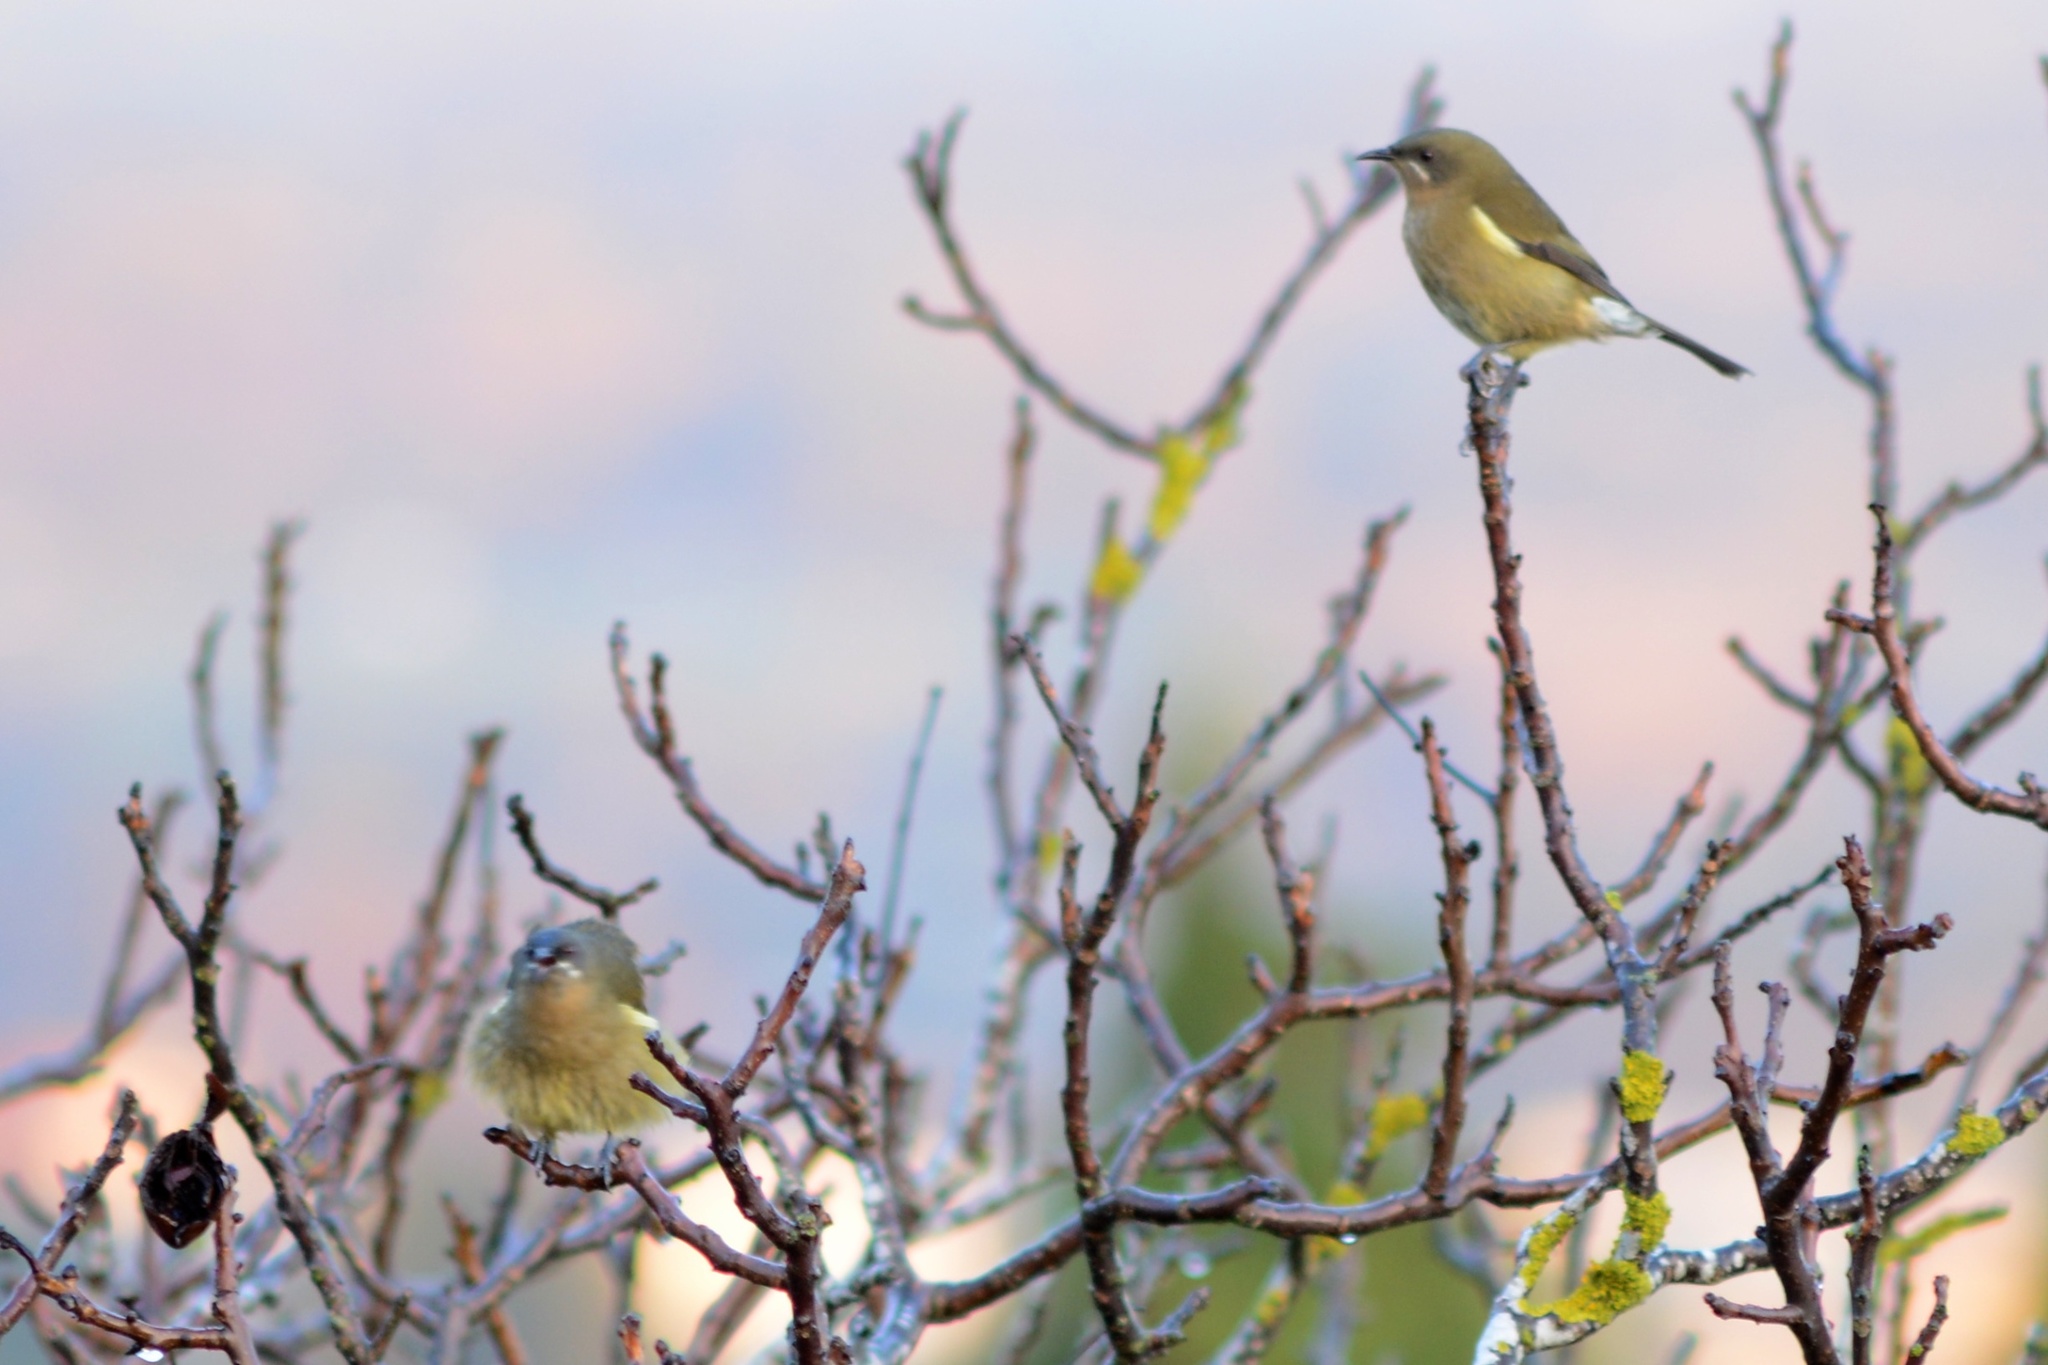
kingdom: Animalia
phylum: Chordata
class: Aves
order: Passeriformes
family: Meliphagidae
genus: Anthornis
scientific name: Anthornis melanura
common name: New zealand bellbird
